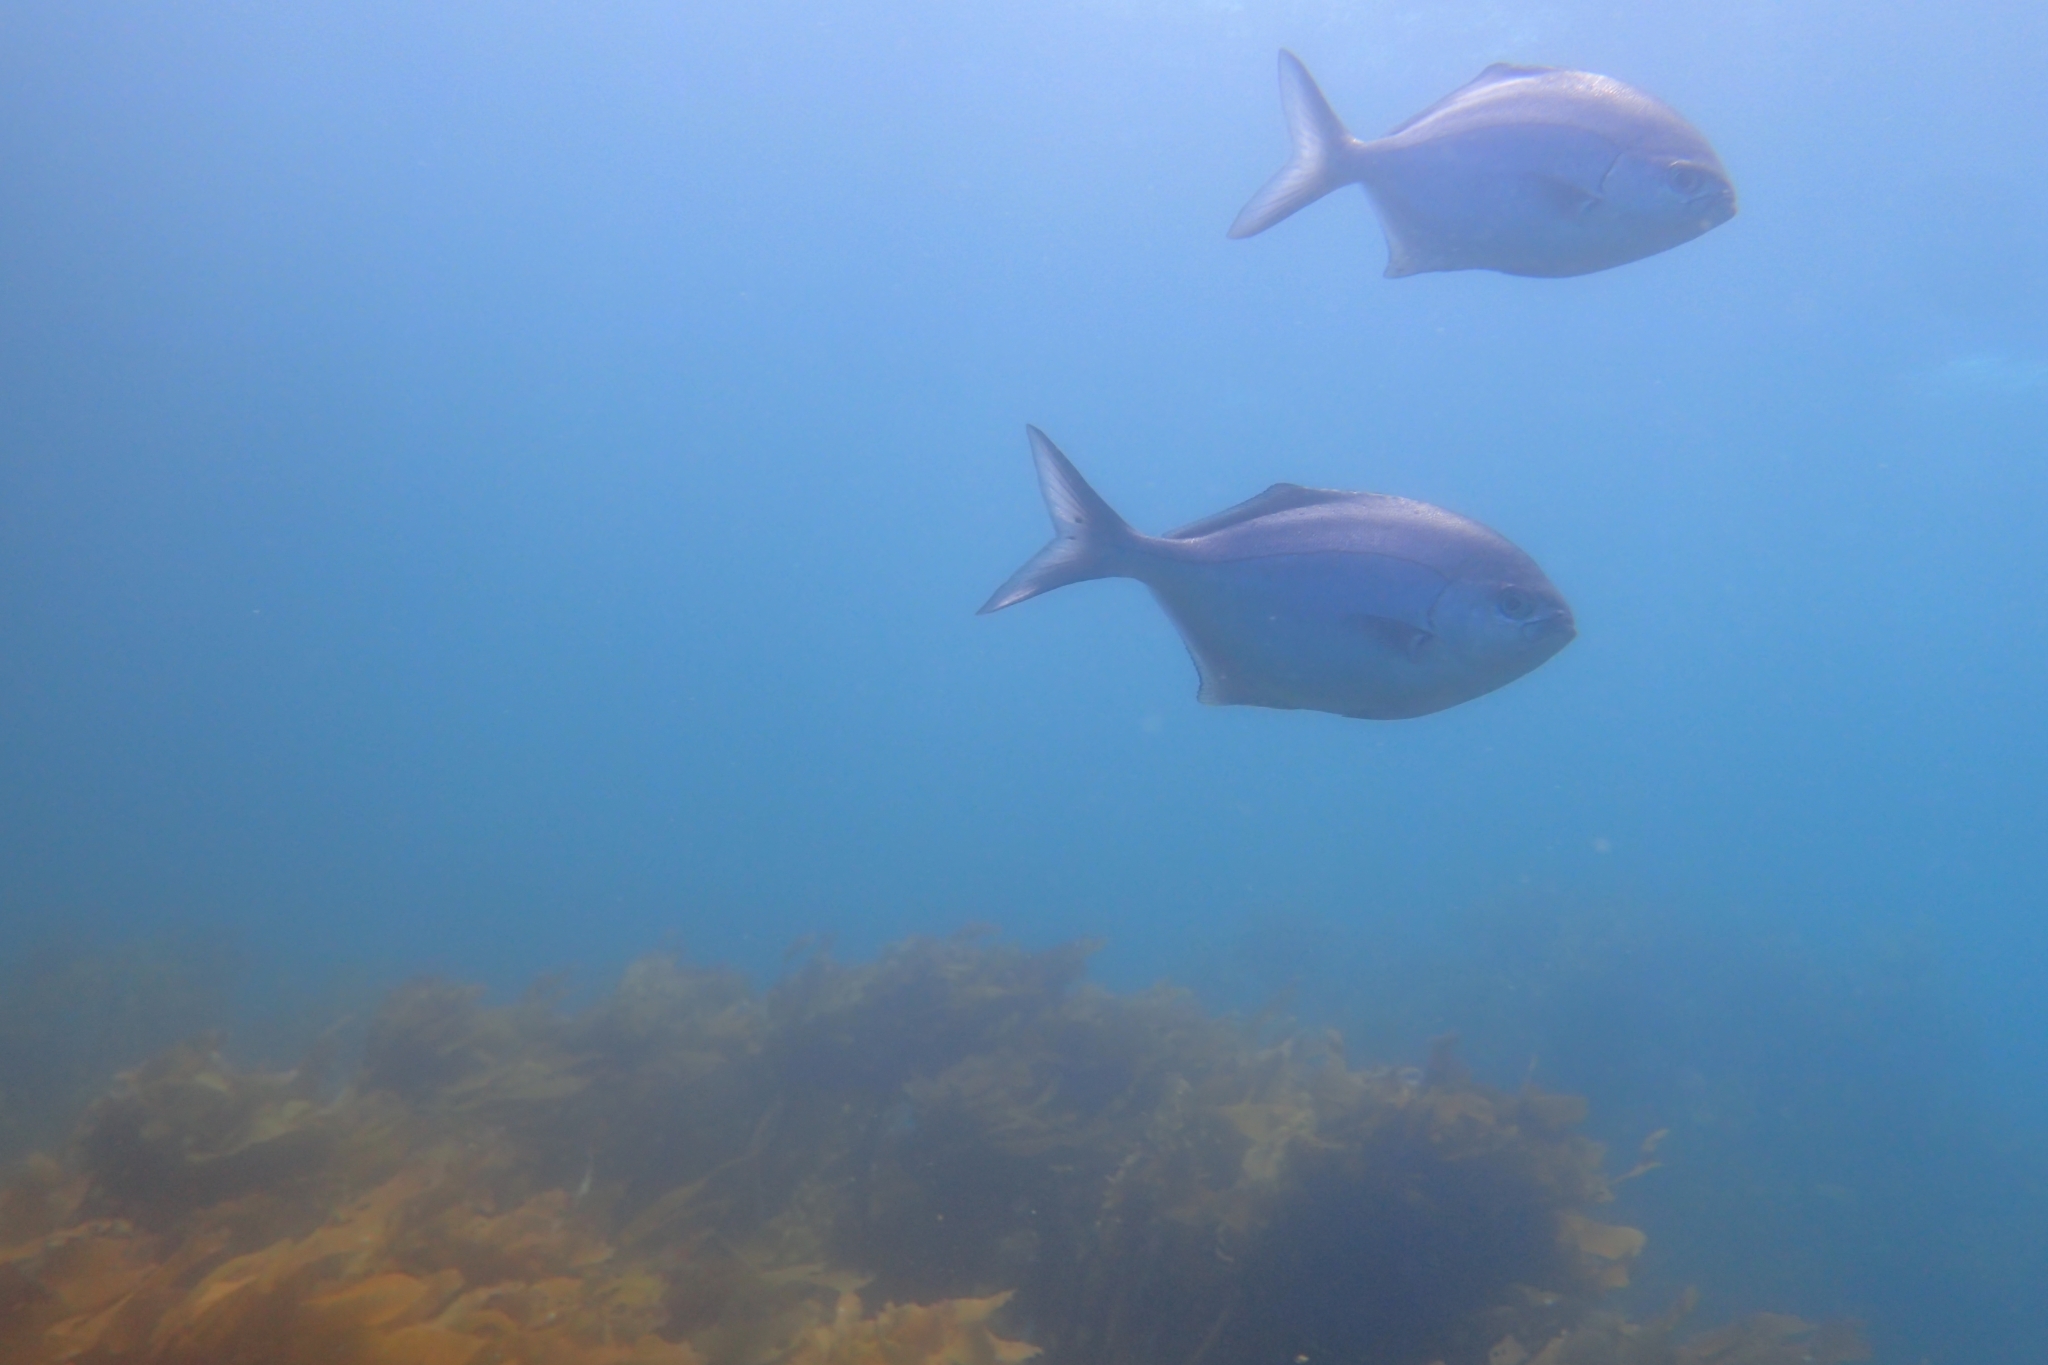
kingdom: Animalia
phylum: Chordata
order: Perciformes
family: Kyphosidae
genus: Scorpis
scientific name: Scorpis violacea
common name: Blue maomao
